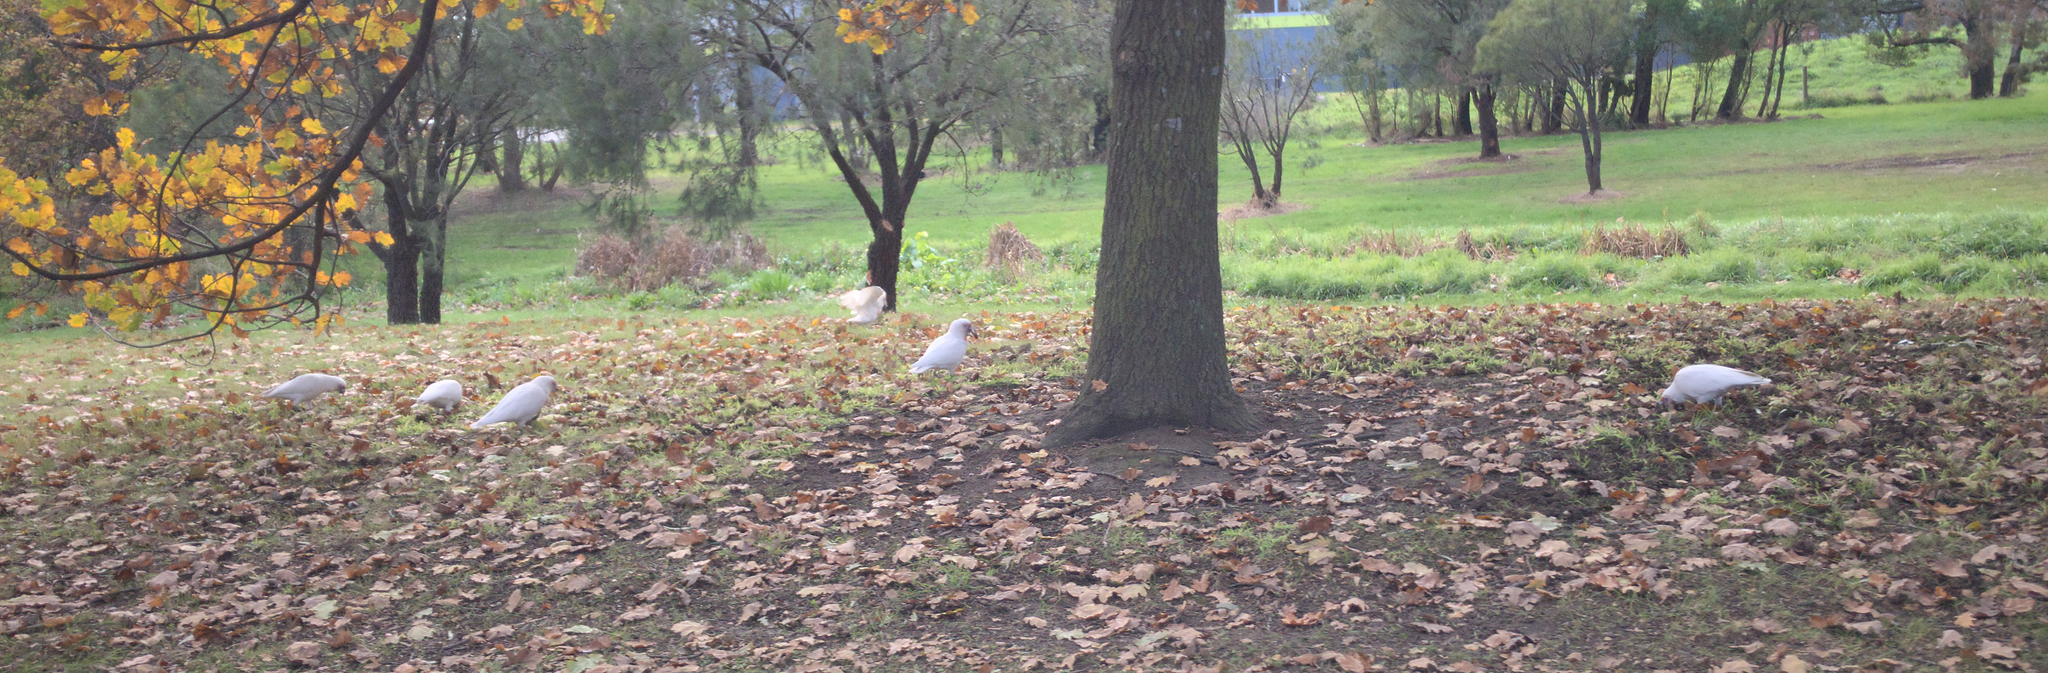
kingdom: Animalia
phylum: Chordata
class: Aves
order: Psittaciformes
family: Psittacidae
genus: Cacatua
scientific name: Cacatua tenuirostris
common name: Long-billed corella
